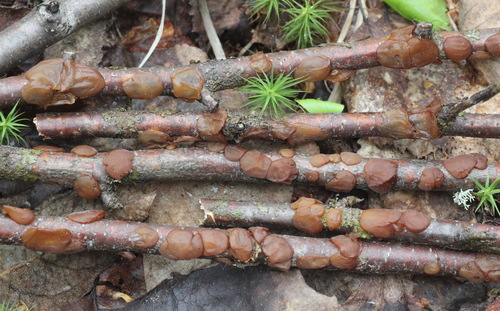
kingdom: Fungi
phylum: Basidiomycota
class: Agaricomycetes
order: Auriculariales
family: Auriculariaceae
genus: Exidia
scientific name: Exidia repanda
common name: Birch jelly
